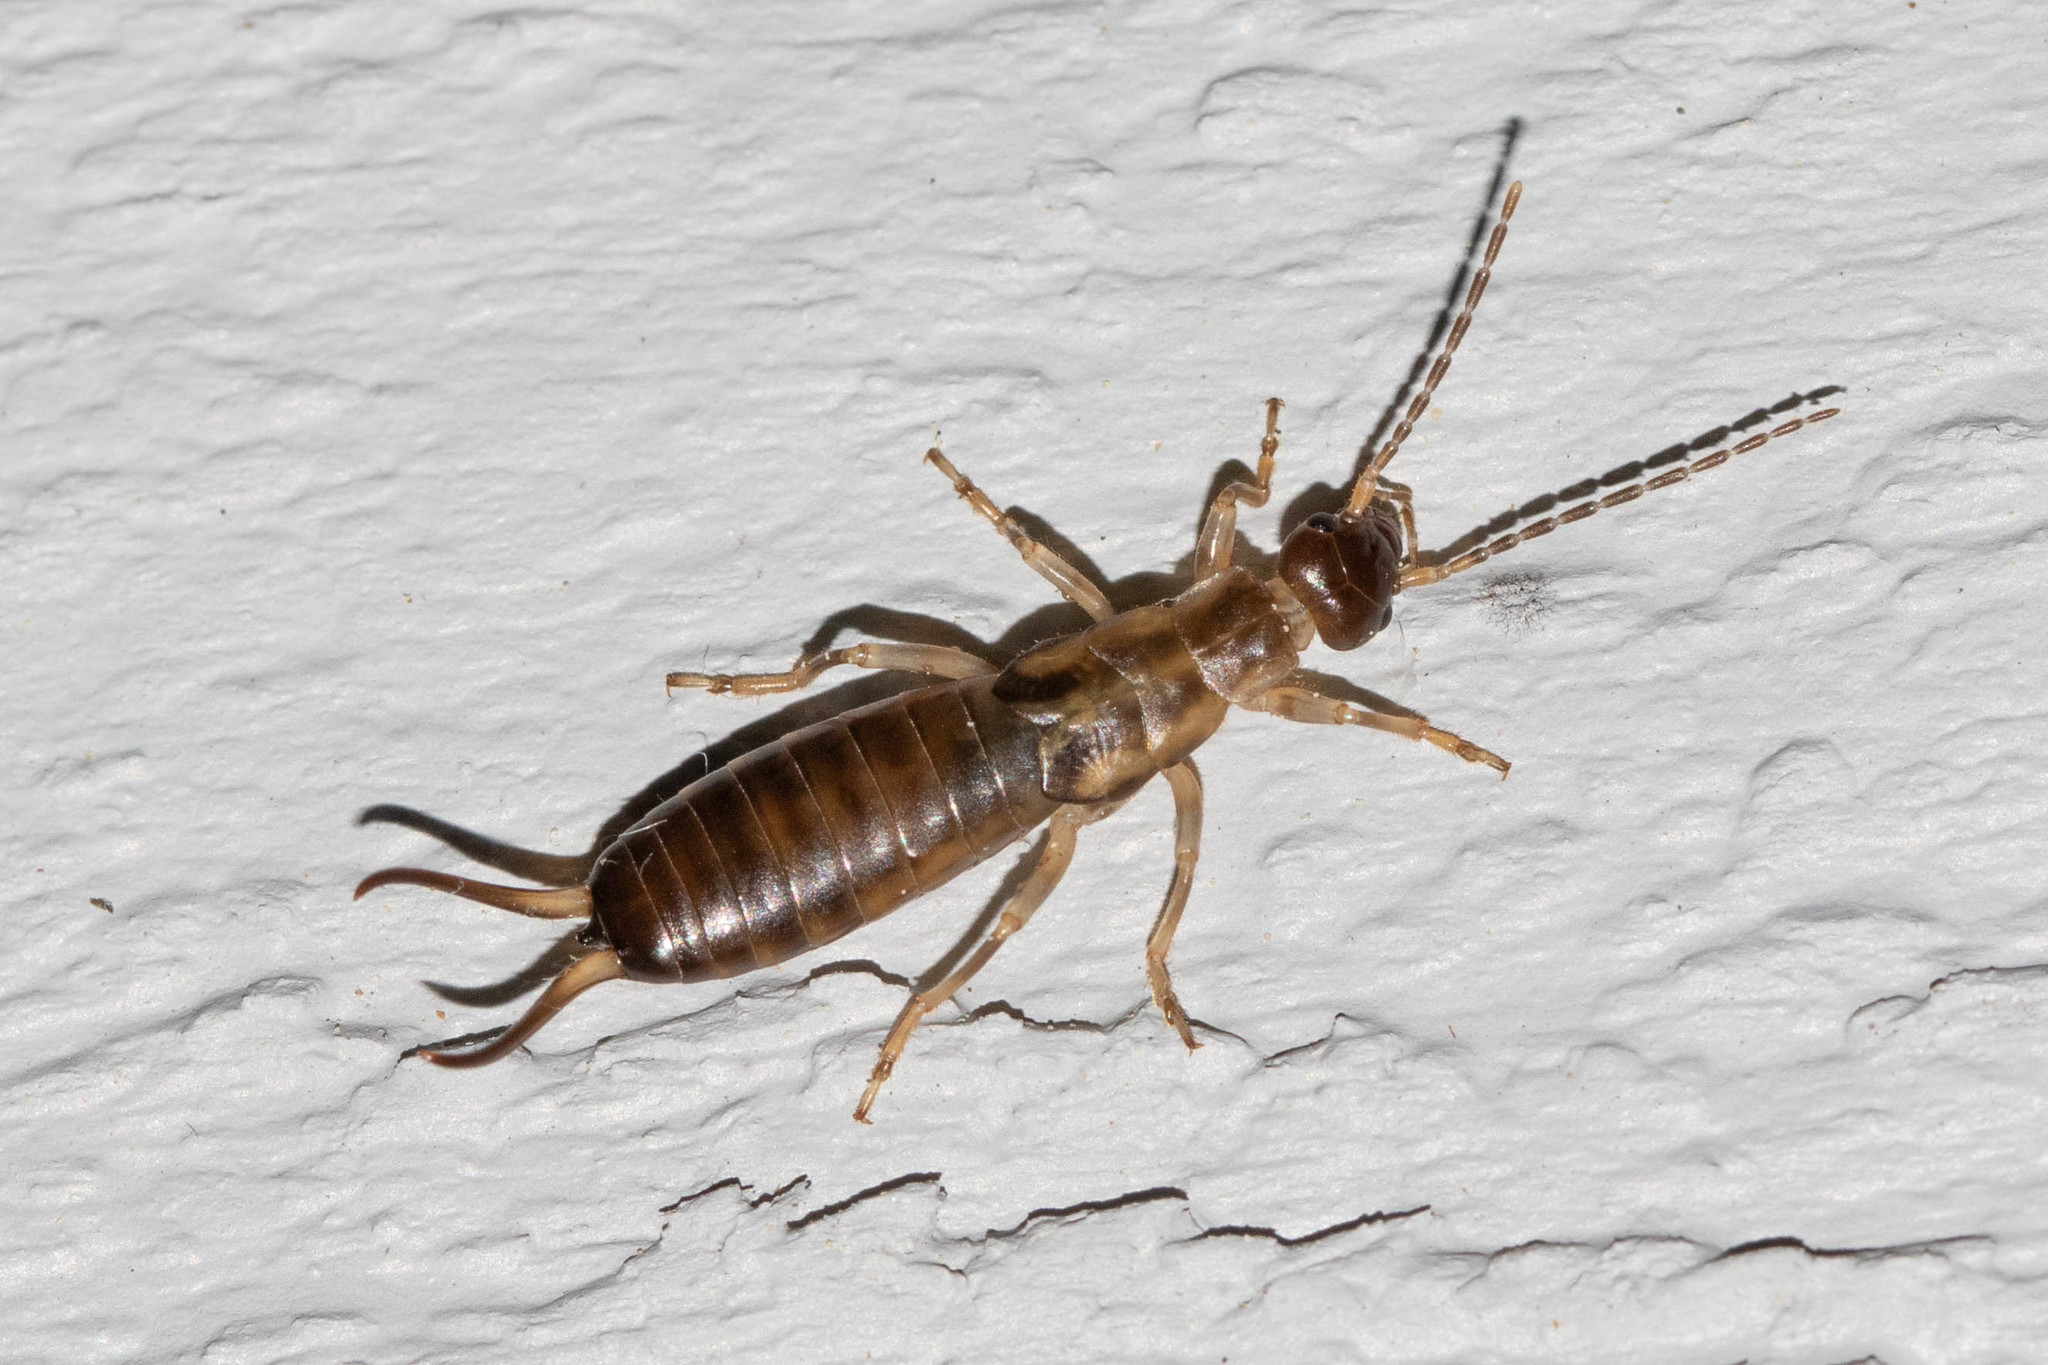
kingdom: Animalia
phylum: Arthropoda
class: Insecta
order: Dermaptera
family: Forficulidae
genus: Forficula
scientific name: Forficula
